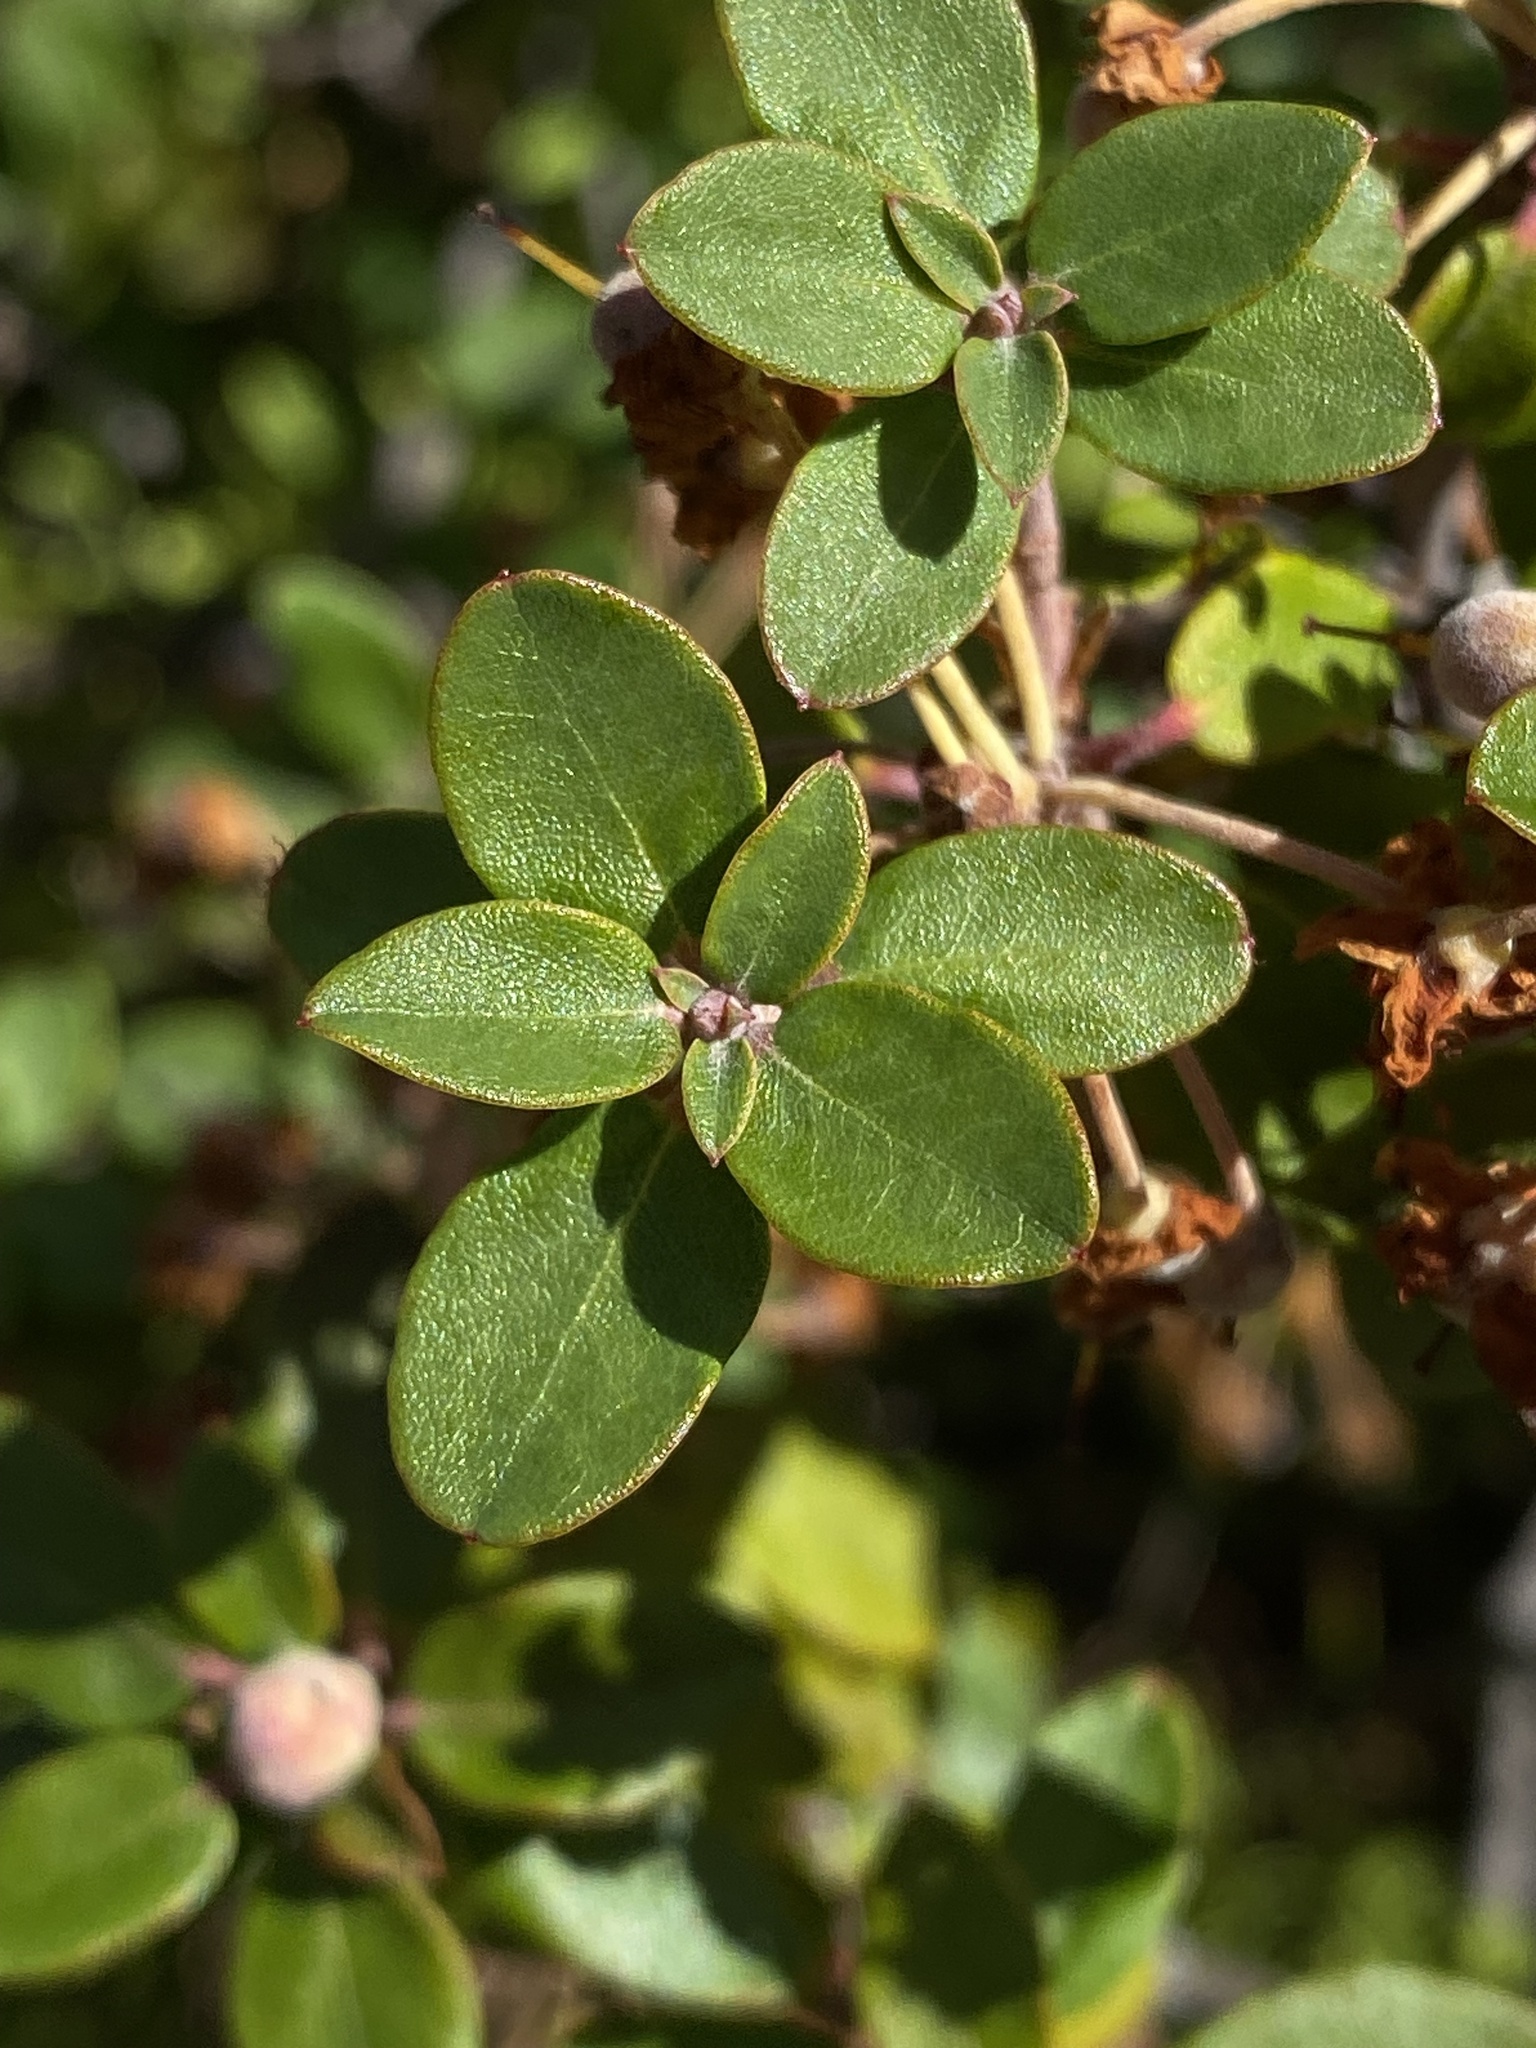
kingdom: Plantae
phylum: Tracheophyta
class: Magnoliopsida
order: Ericales
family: Ericaceae
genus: Rhododendron
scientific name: Rhododendron columbianum
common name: Western labrador tea
